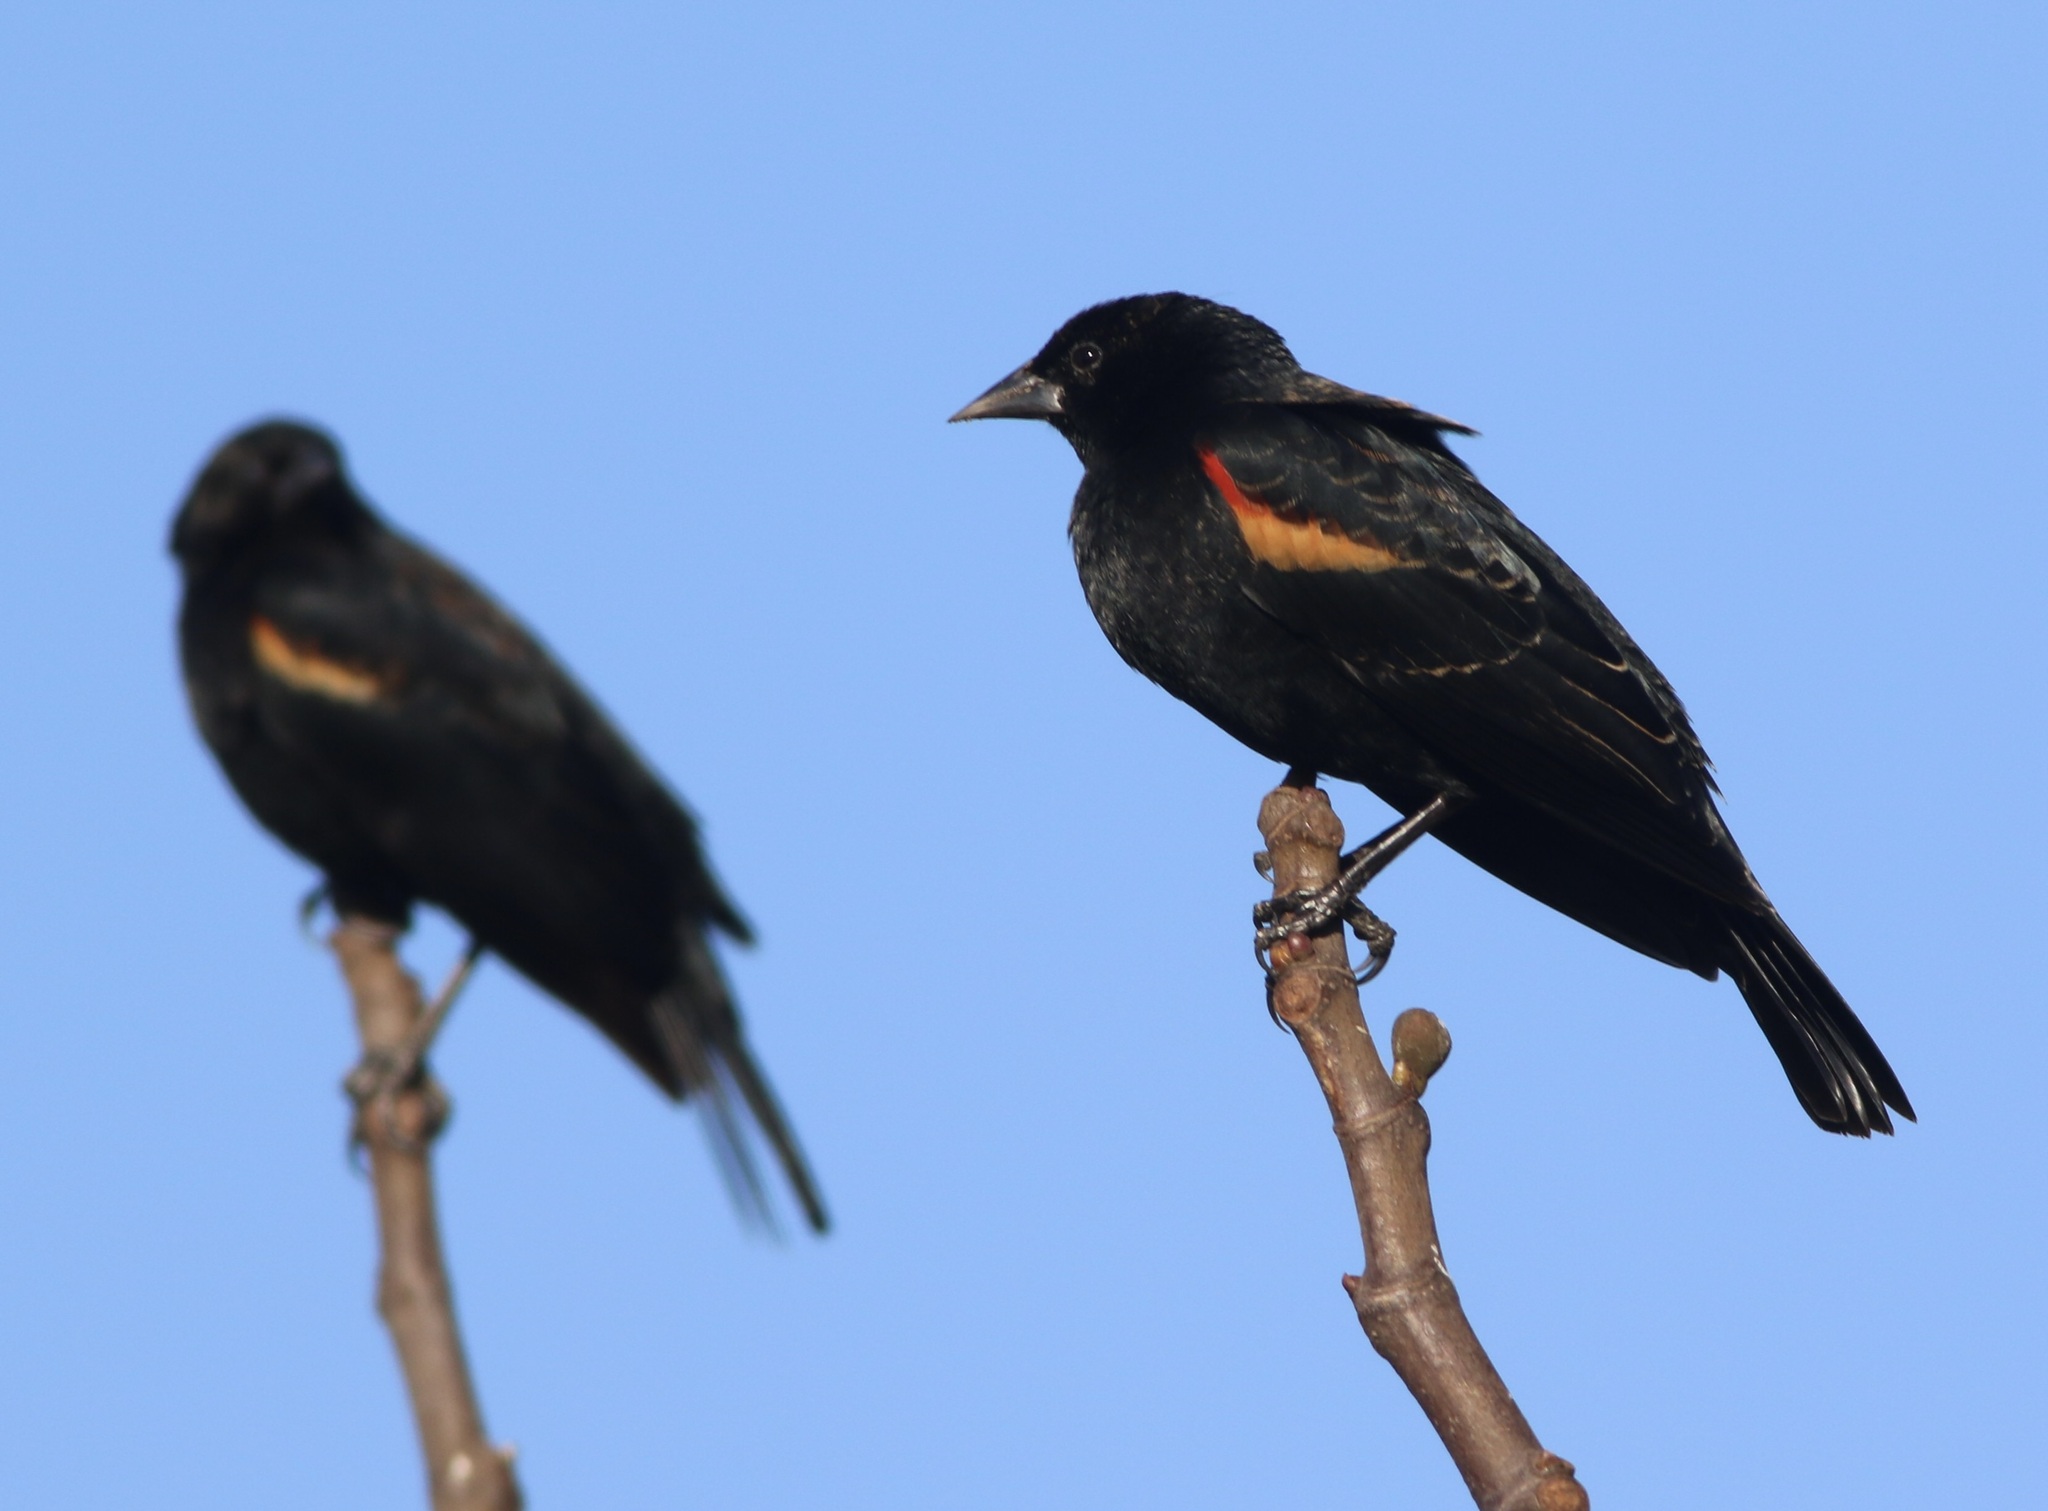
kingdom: Animalia
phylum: Chordata
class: Aves
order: Passeriformes
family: Icteridae
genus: Agelaius
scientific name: Agelaius phoeniceus
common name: Red-winged blackbird
